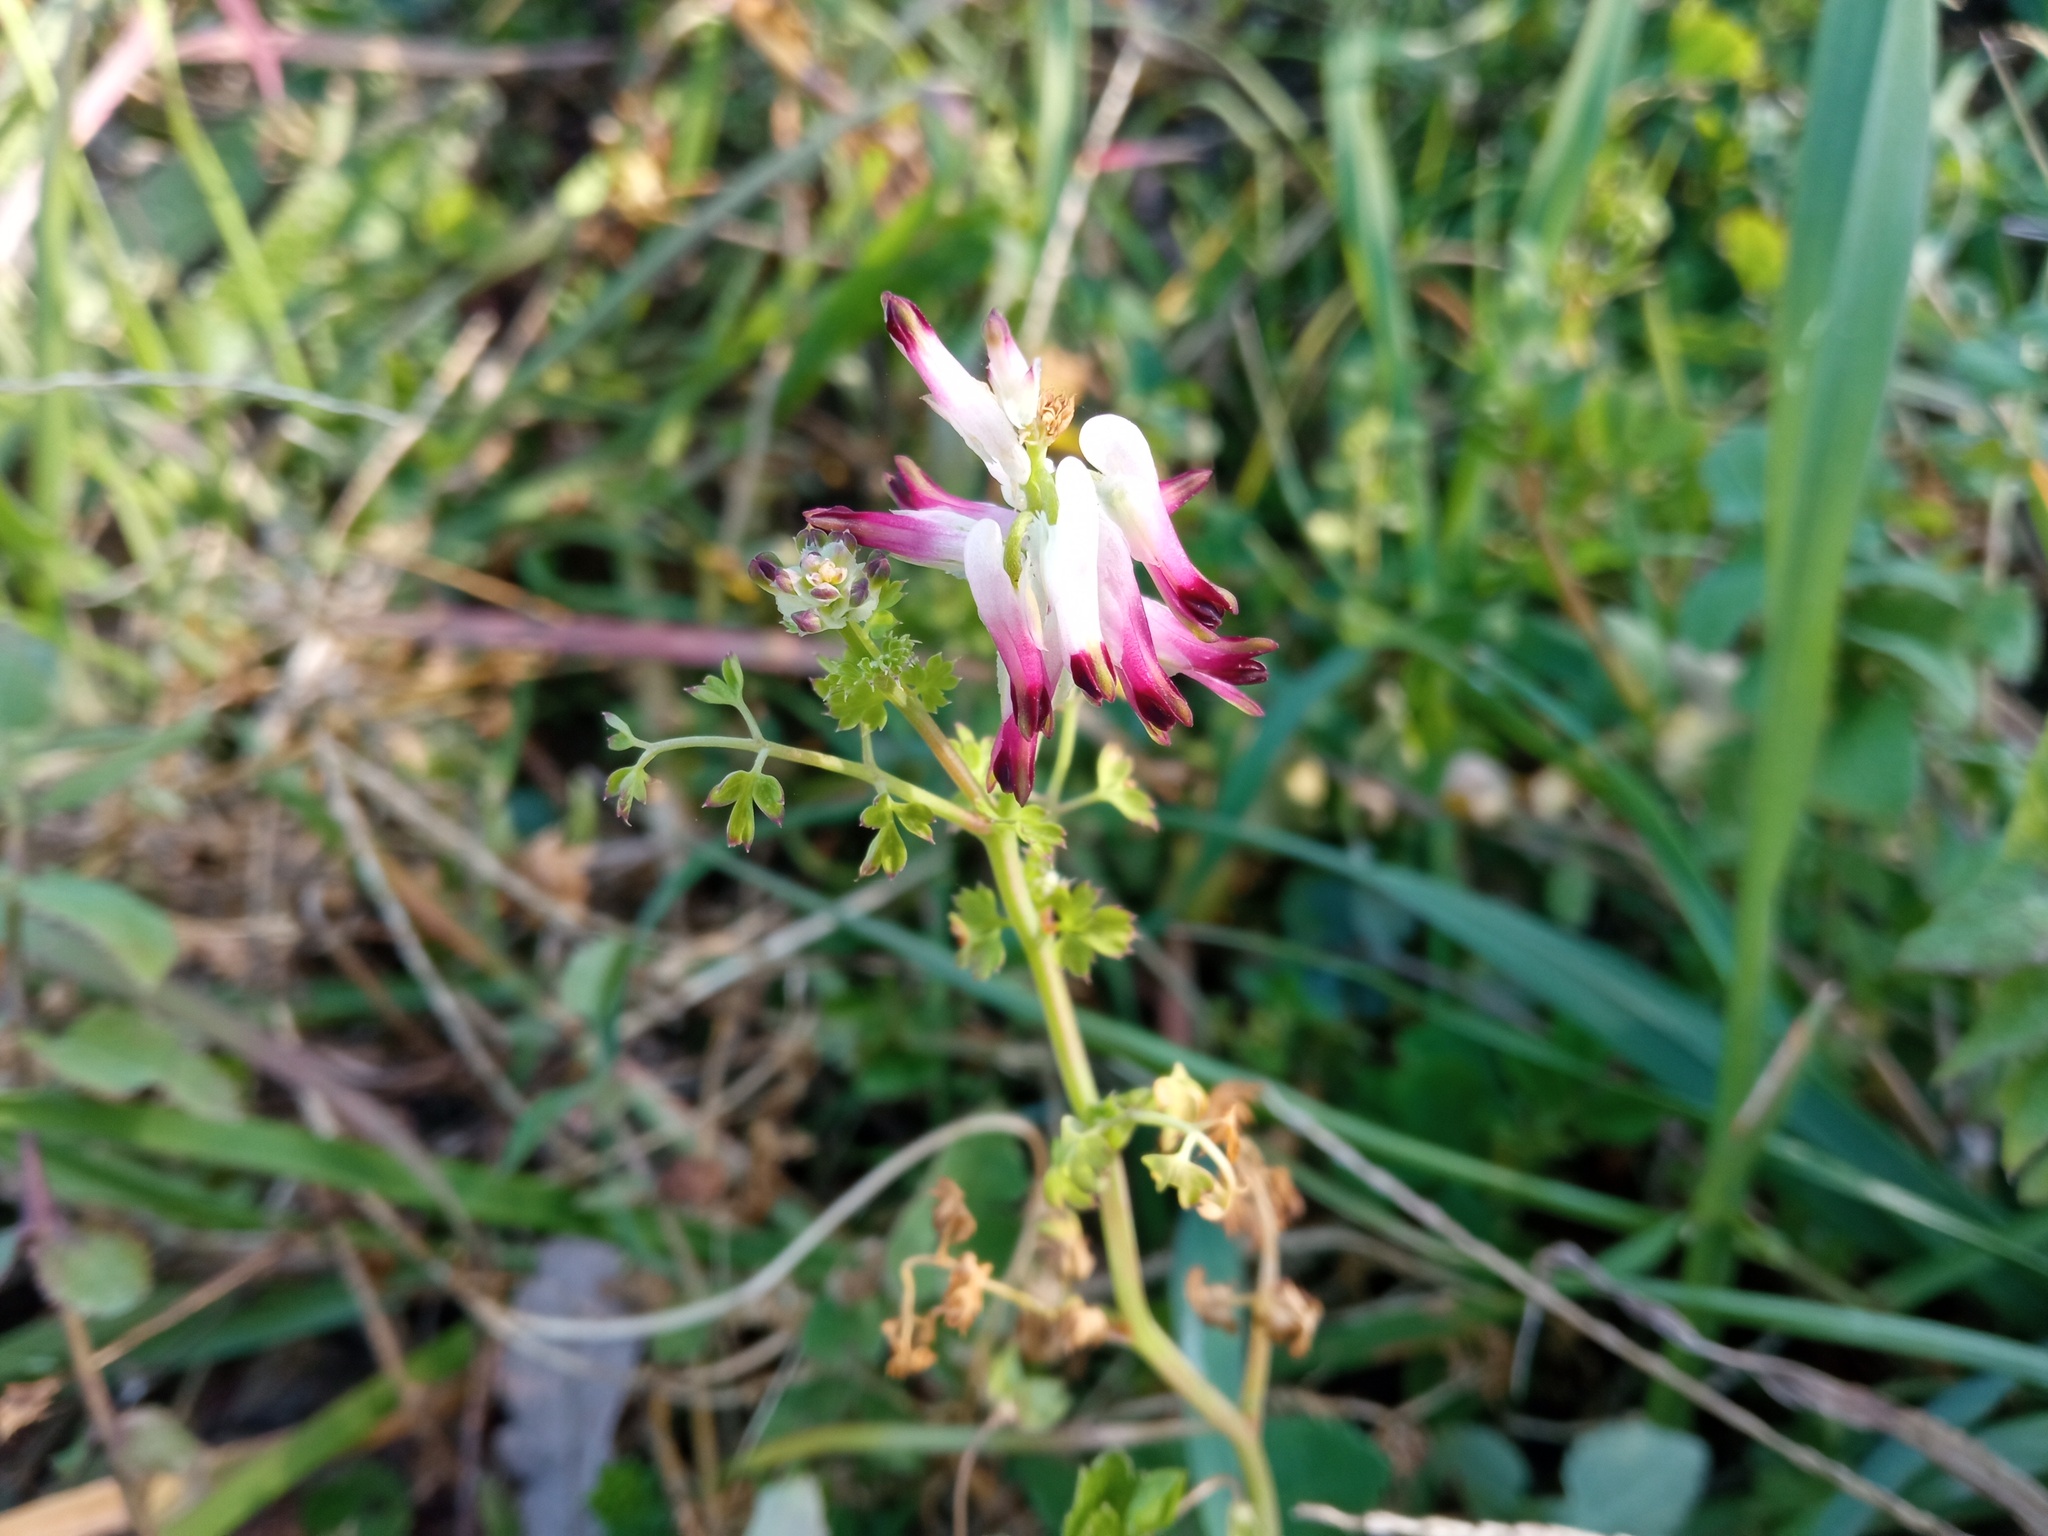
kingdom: Plantae
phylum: Tracheophyta
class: Magnoliopsida
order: Ranunculales
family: Papaveraceae
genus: Fumaria
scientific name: Fumaria capreolata
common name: White ramping-fumitory
